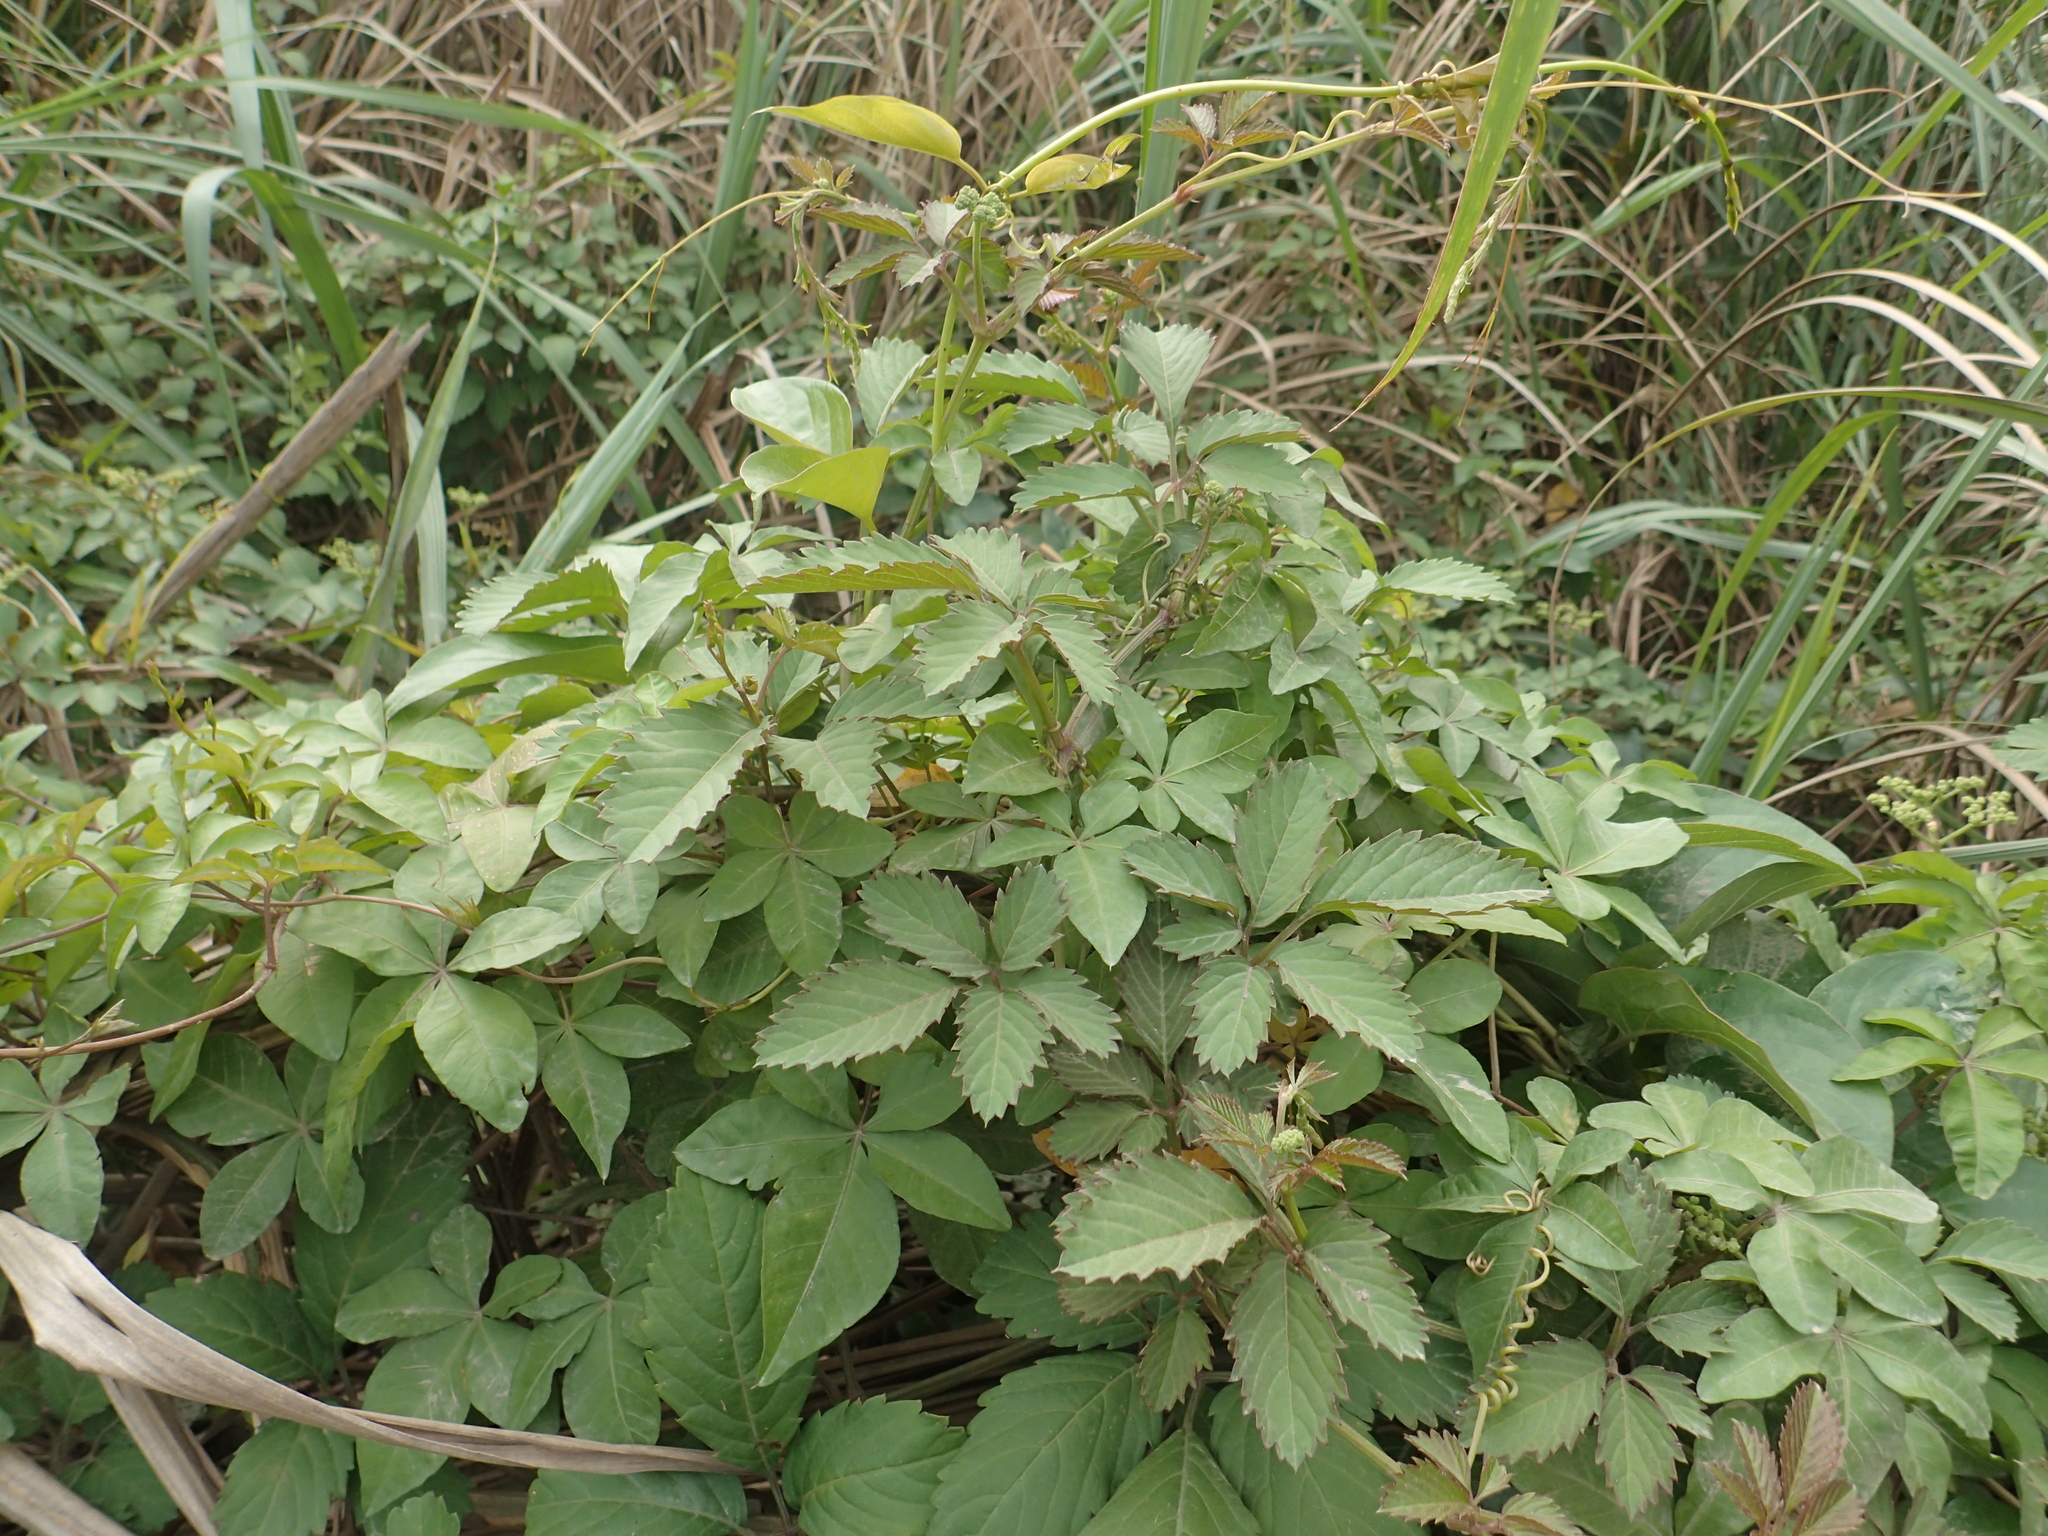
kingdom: Plantae
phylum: Tracheophyta
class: Magnoliopsida
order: Vitales
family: Vitaceae
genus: Causonis
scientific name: Causonis japonica
